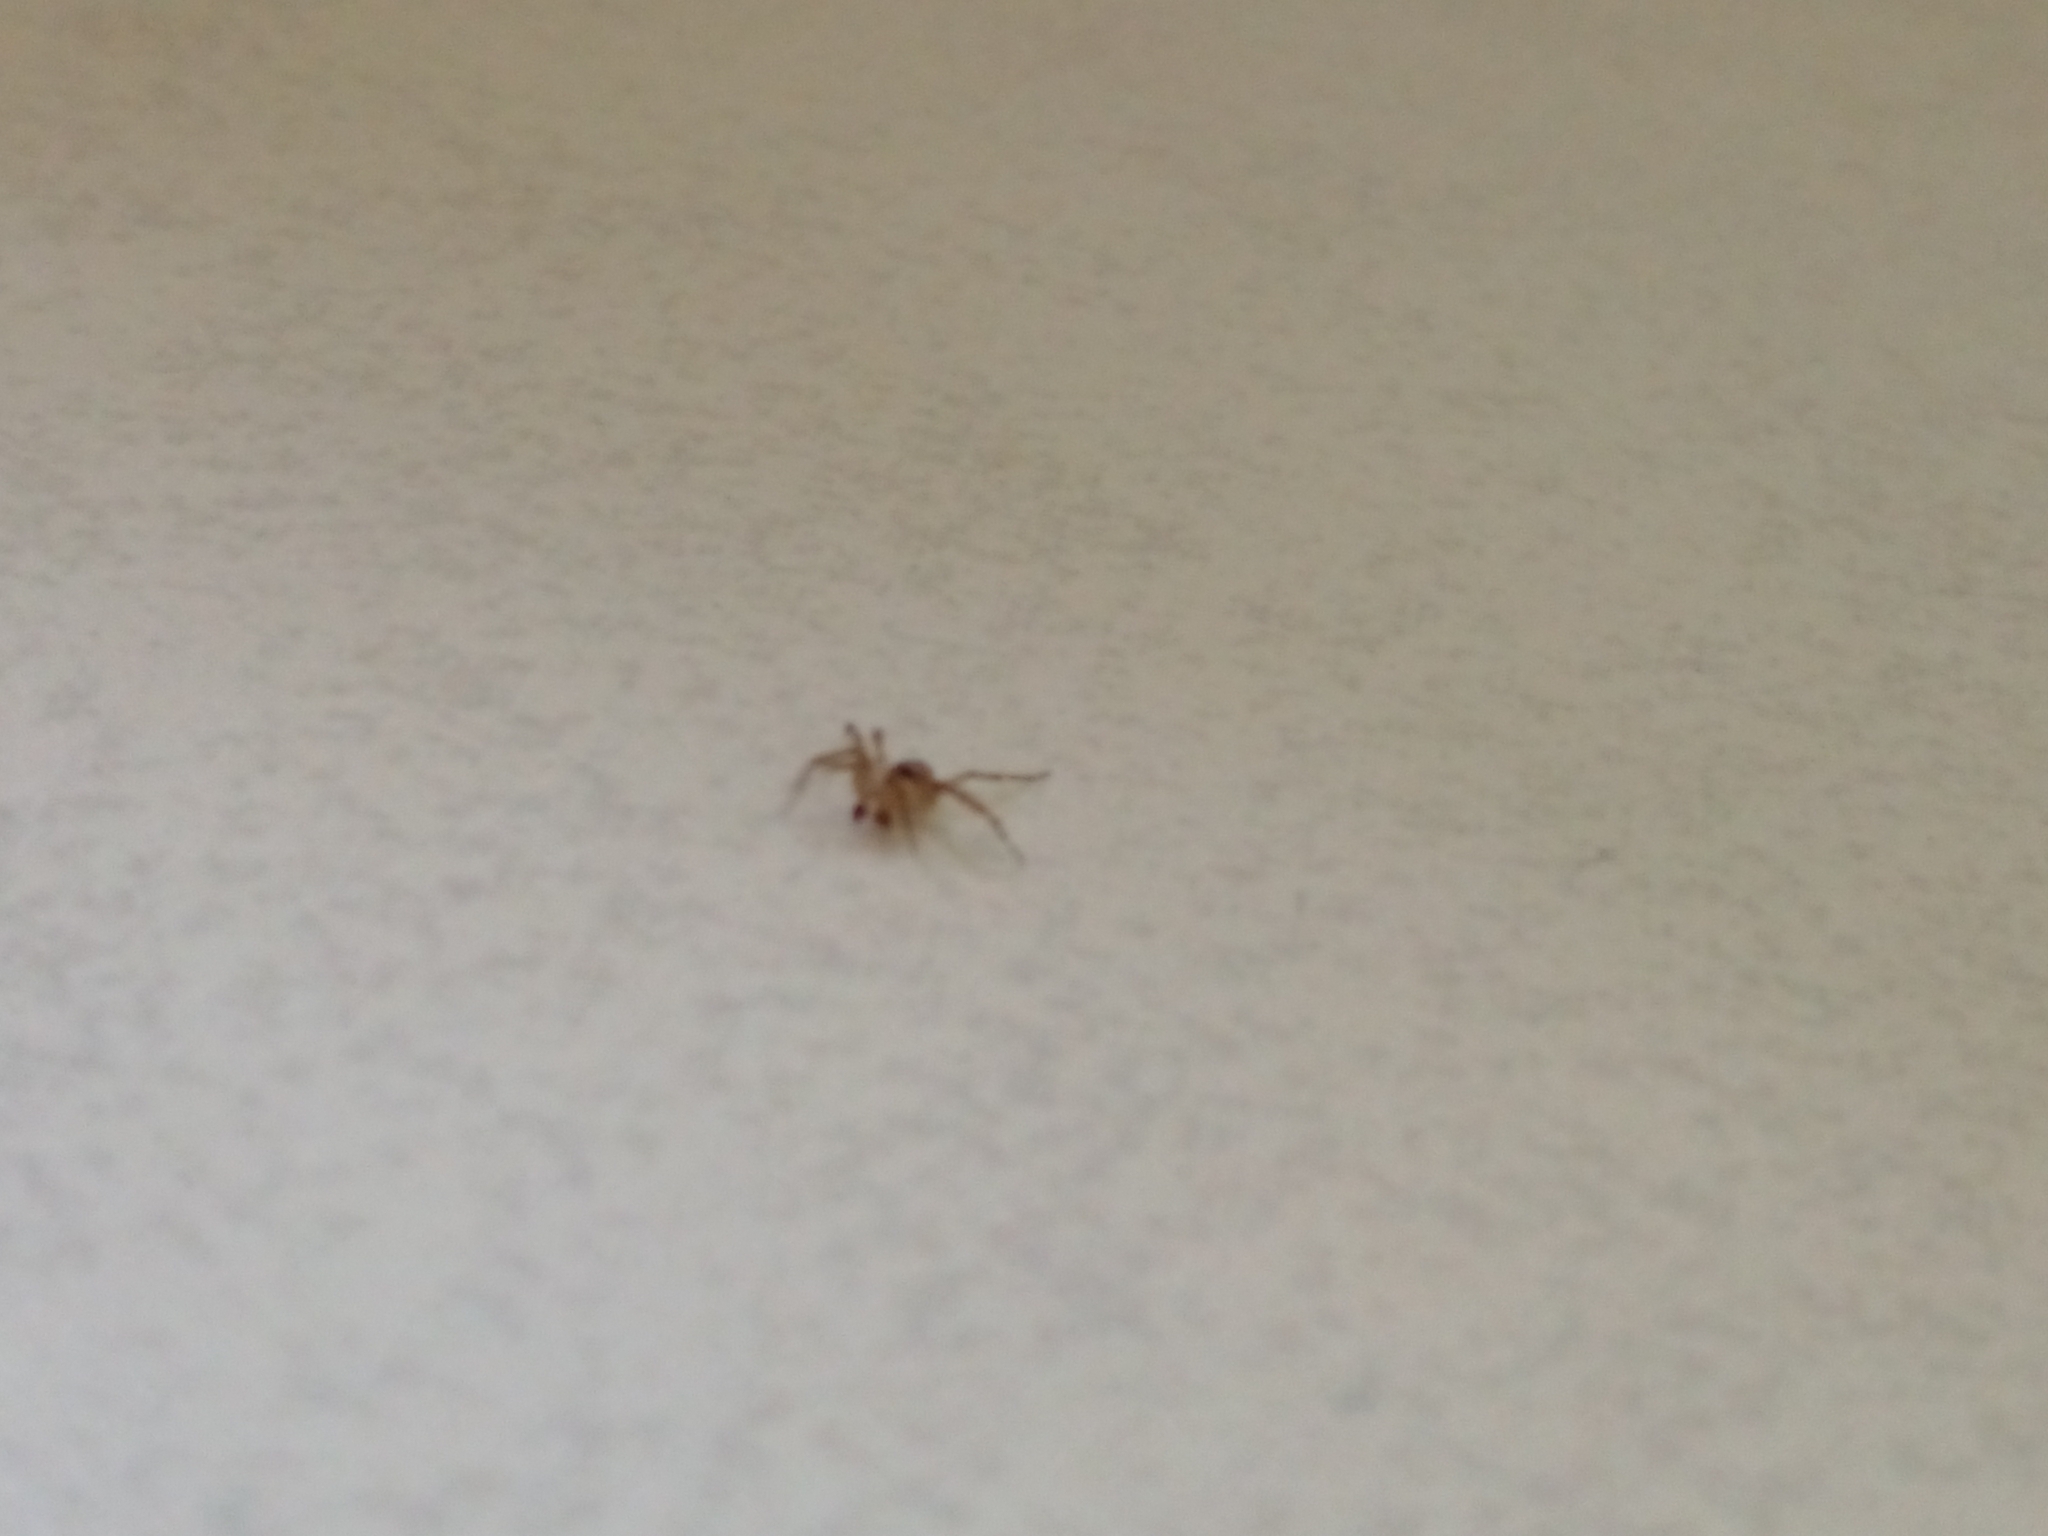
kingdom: Animalia
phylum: Arthropoda
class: Arachnida
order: Araneae
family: Oecobiidae
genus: Oecobius
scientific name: Oecobius navus
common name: Flatmesh weaver
